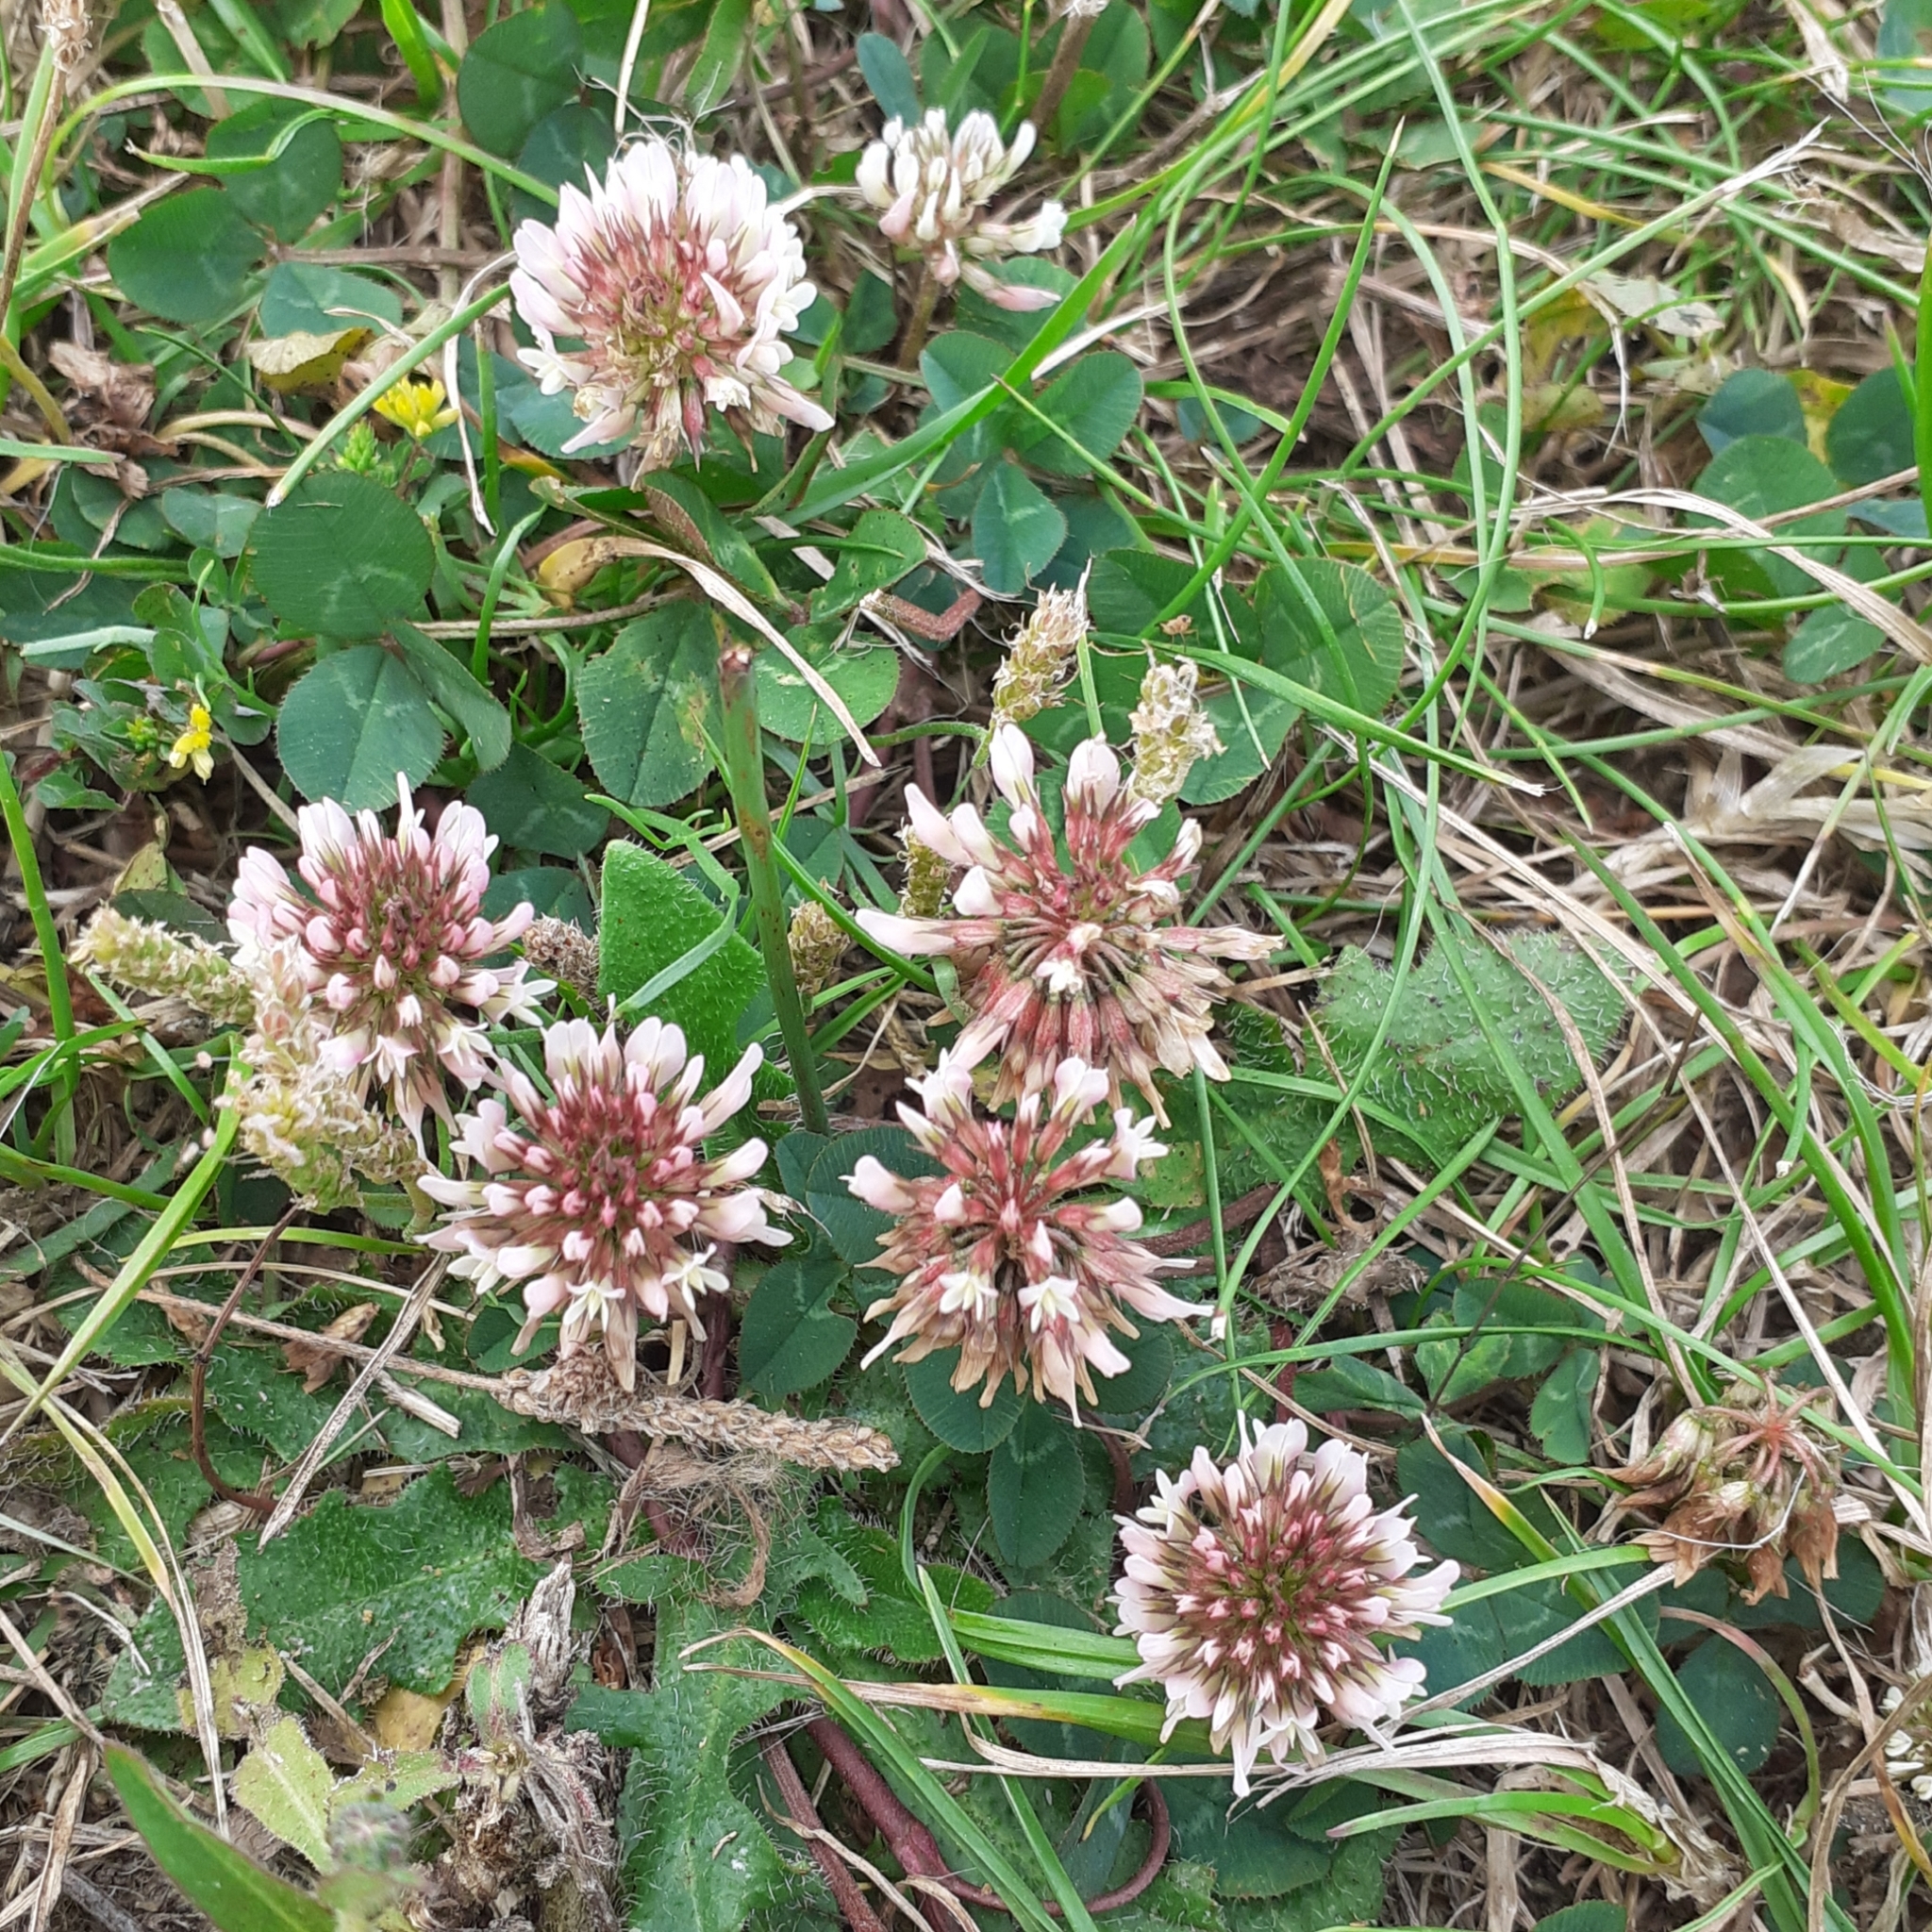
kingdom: Plantae
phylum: Tracheophyta
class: Magnoliopsida
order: Fabales
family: Fabaceae
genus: Trifolium
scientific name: Trifolium repens
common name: White clover
